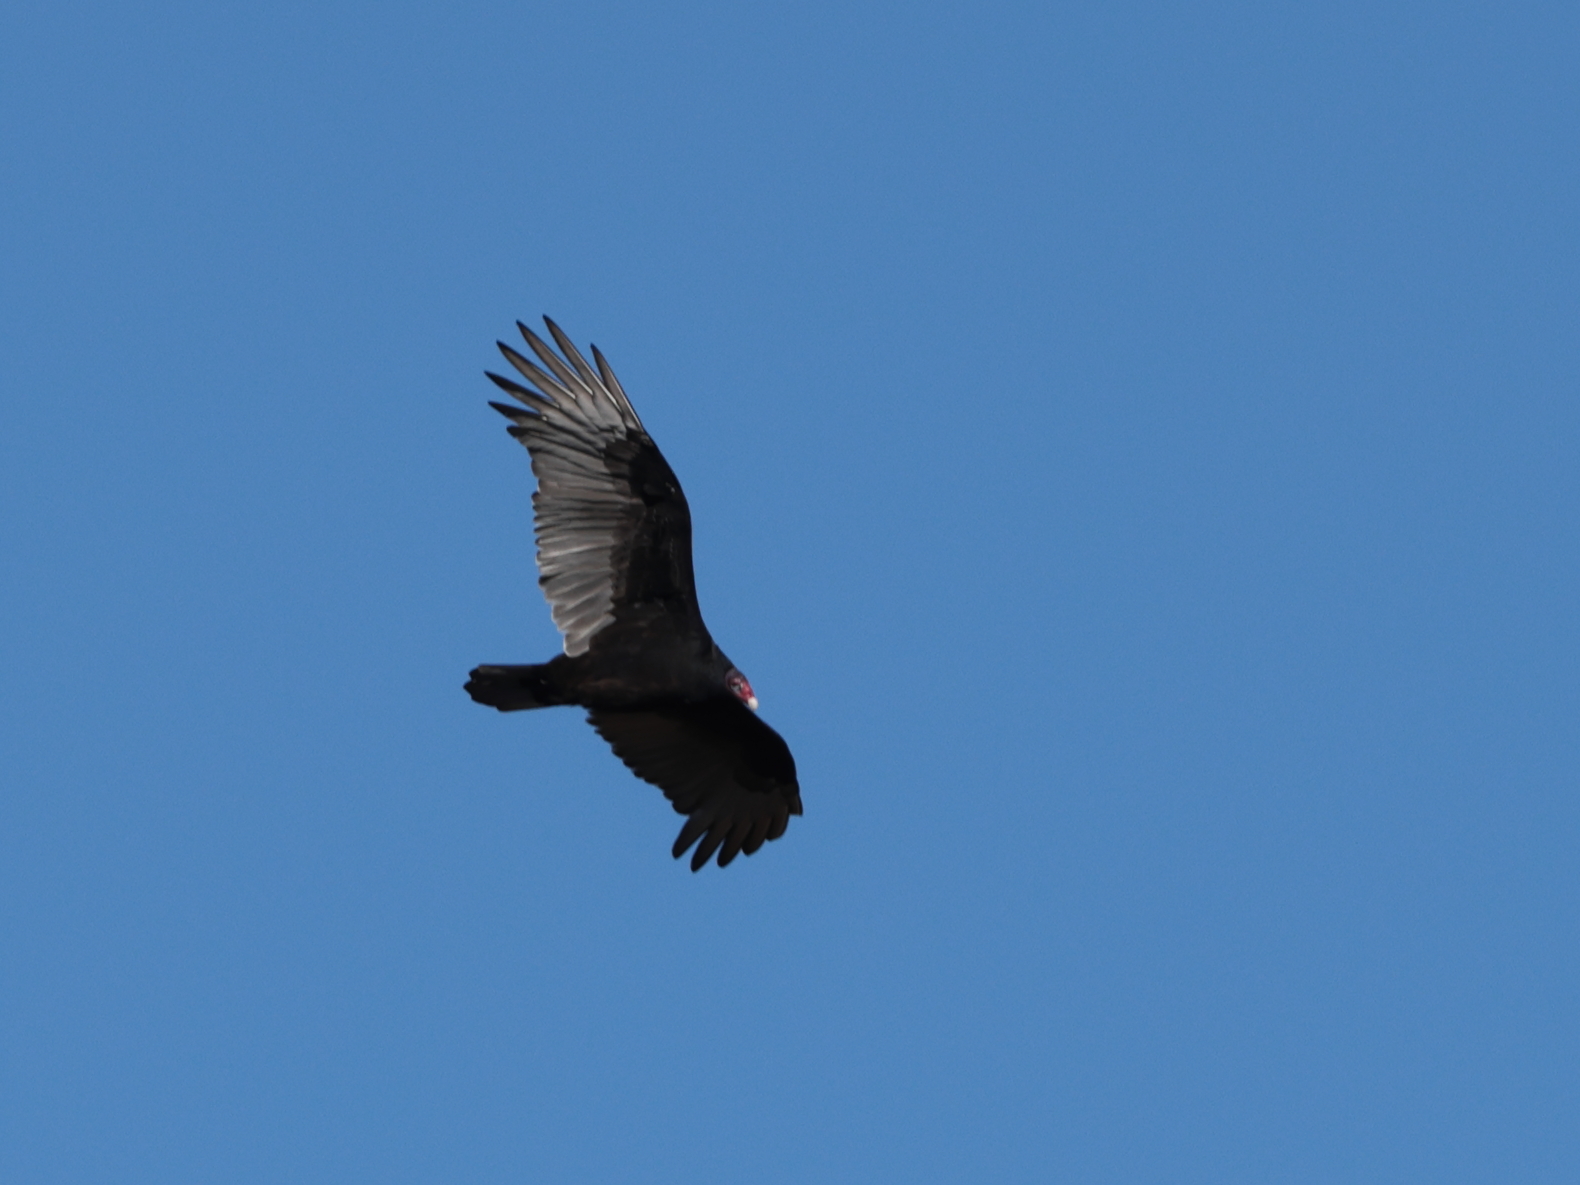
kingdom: Animalia
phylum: Chordata
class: Aves
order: Accipitriformes
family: Cathartidae
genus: Cathartes
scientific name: Cathartes aura
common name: Turkey vulture
